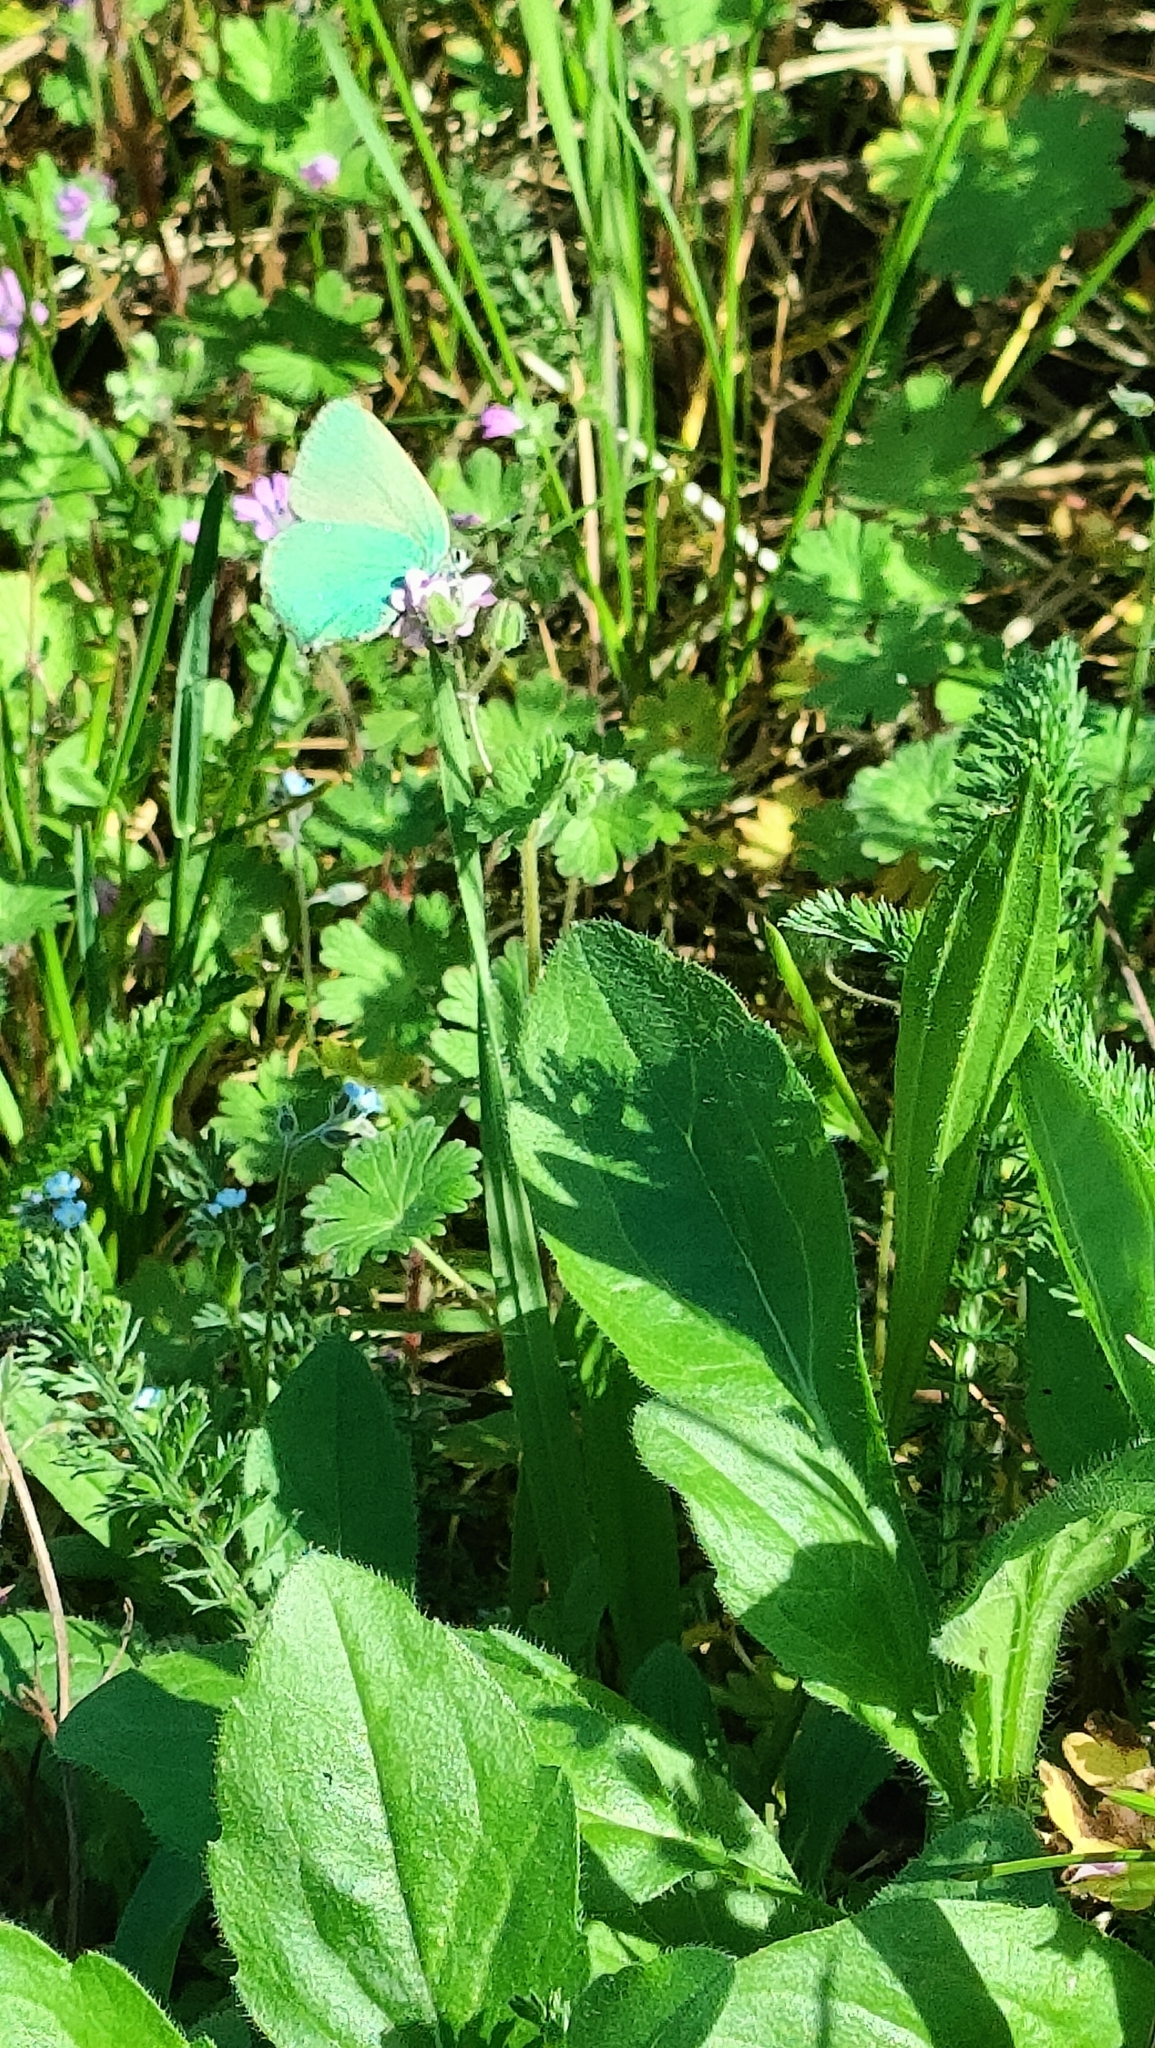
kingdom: Animalia
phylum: Arthropoda
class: Insecta
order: Lepidoptera
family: Lycaenidae
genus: Callophrys
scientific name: Callophrys rubi
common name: Green hairstreak
